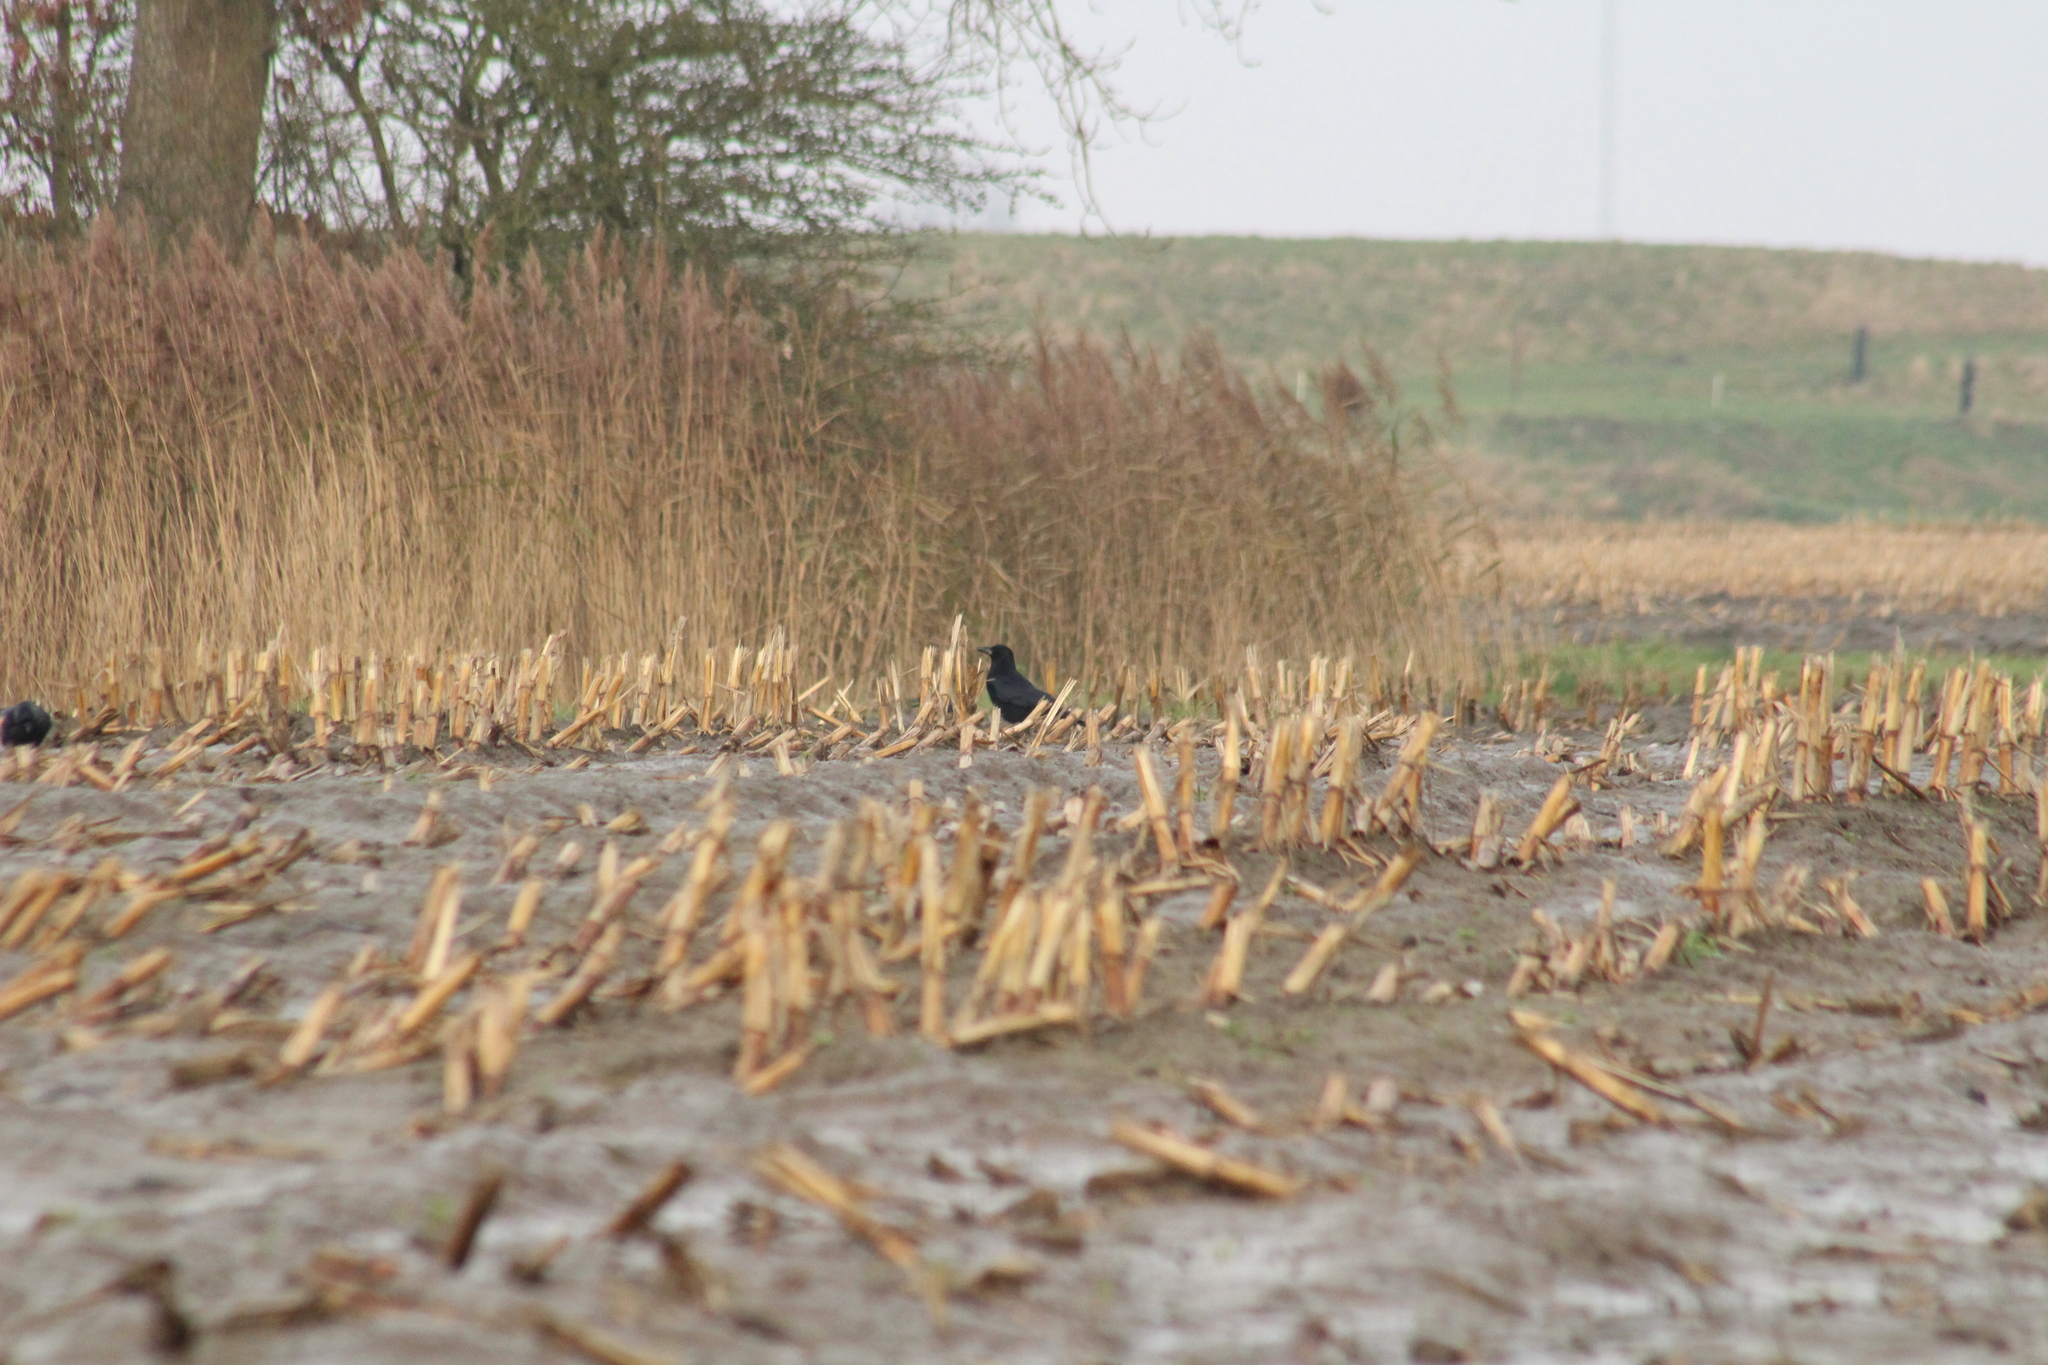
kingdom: Animalia
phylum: Chordata
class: Aves
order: Passeriformes
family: Corvidae
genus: Corvus
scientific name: Corvus corone
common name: Carrion crow
